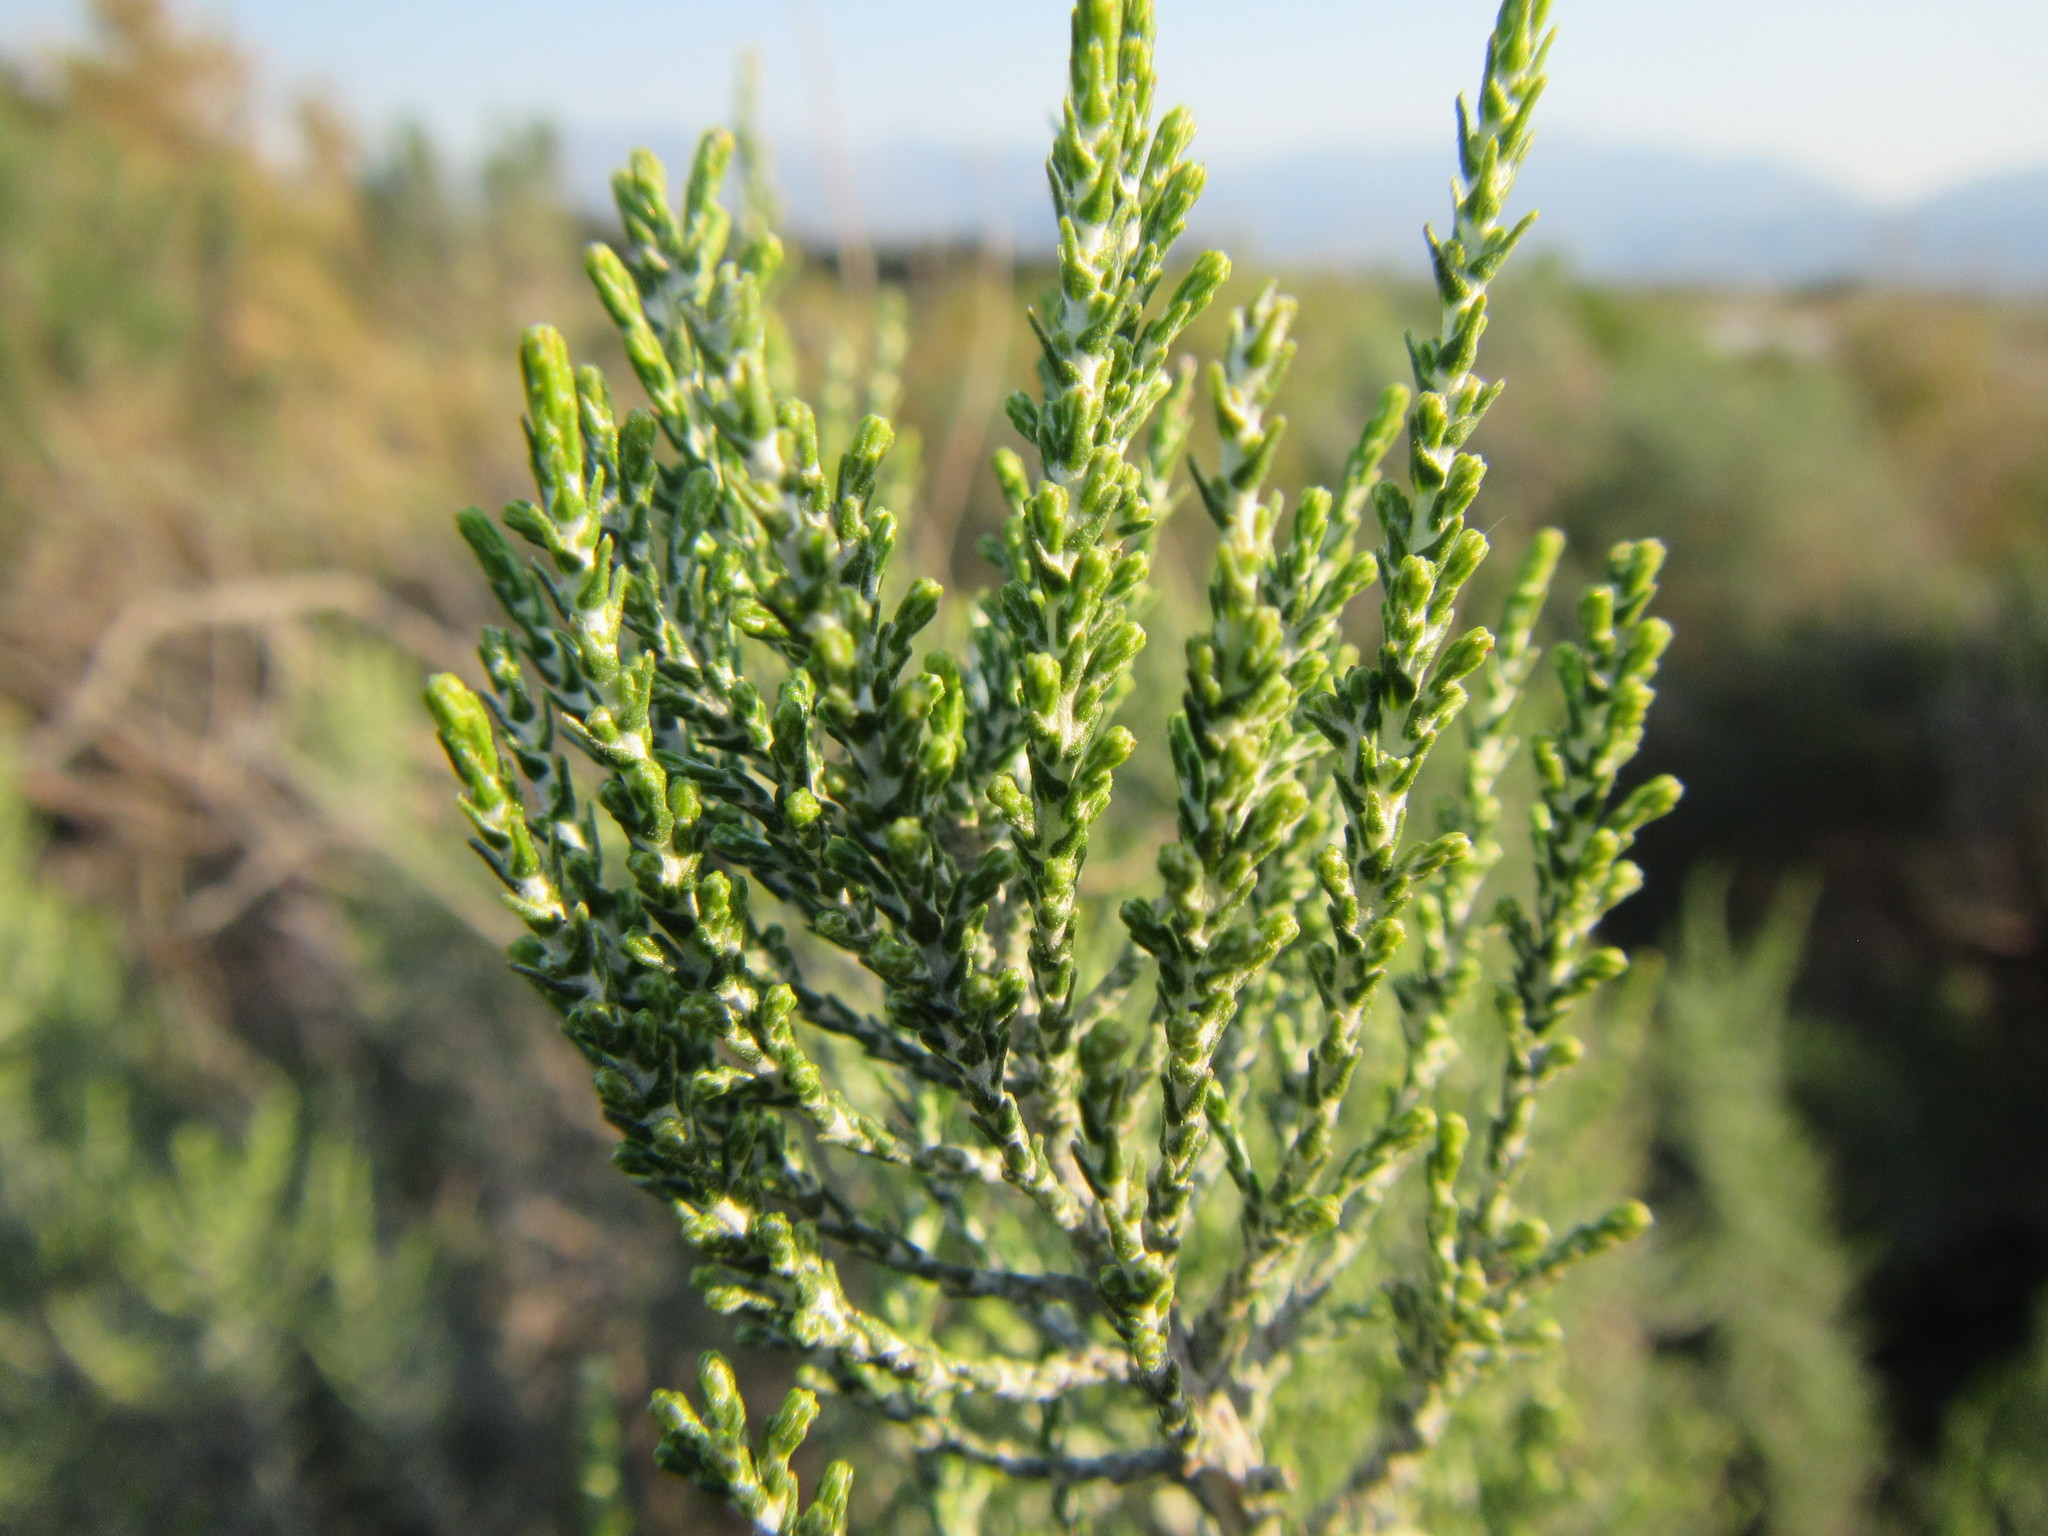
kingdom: Plantae
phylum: Tracheophyta
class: Magnoliopsida
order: Asterales
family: Asteraceae
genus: Dicerothamnus
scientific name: Dicerothamnus rhinocerotis
